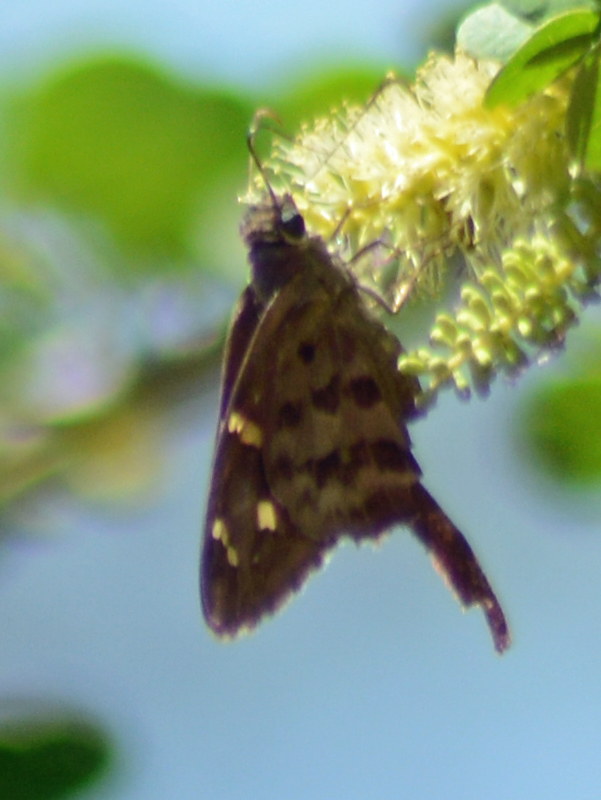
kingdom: Animalia
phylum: Arthropoda
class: Insecta
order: Lepidoptera
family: Hesperiidae
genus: Thorybes
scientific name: Thorybes
